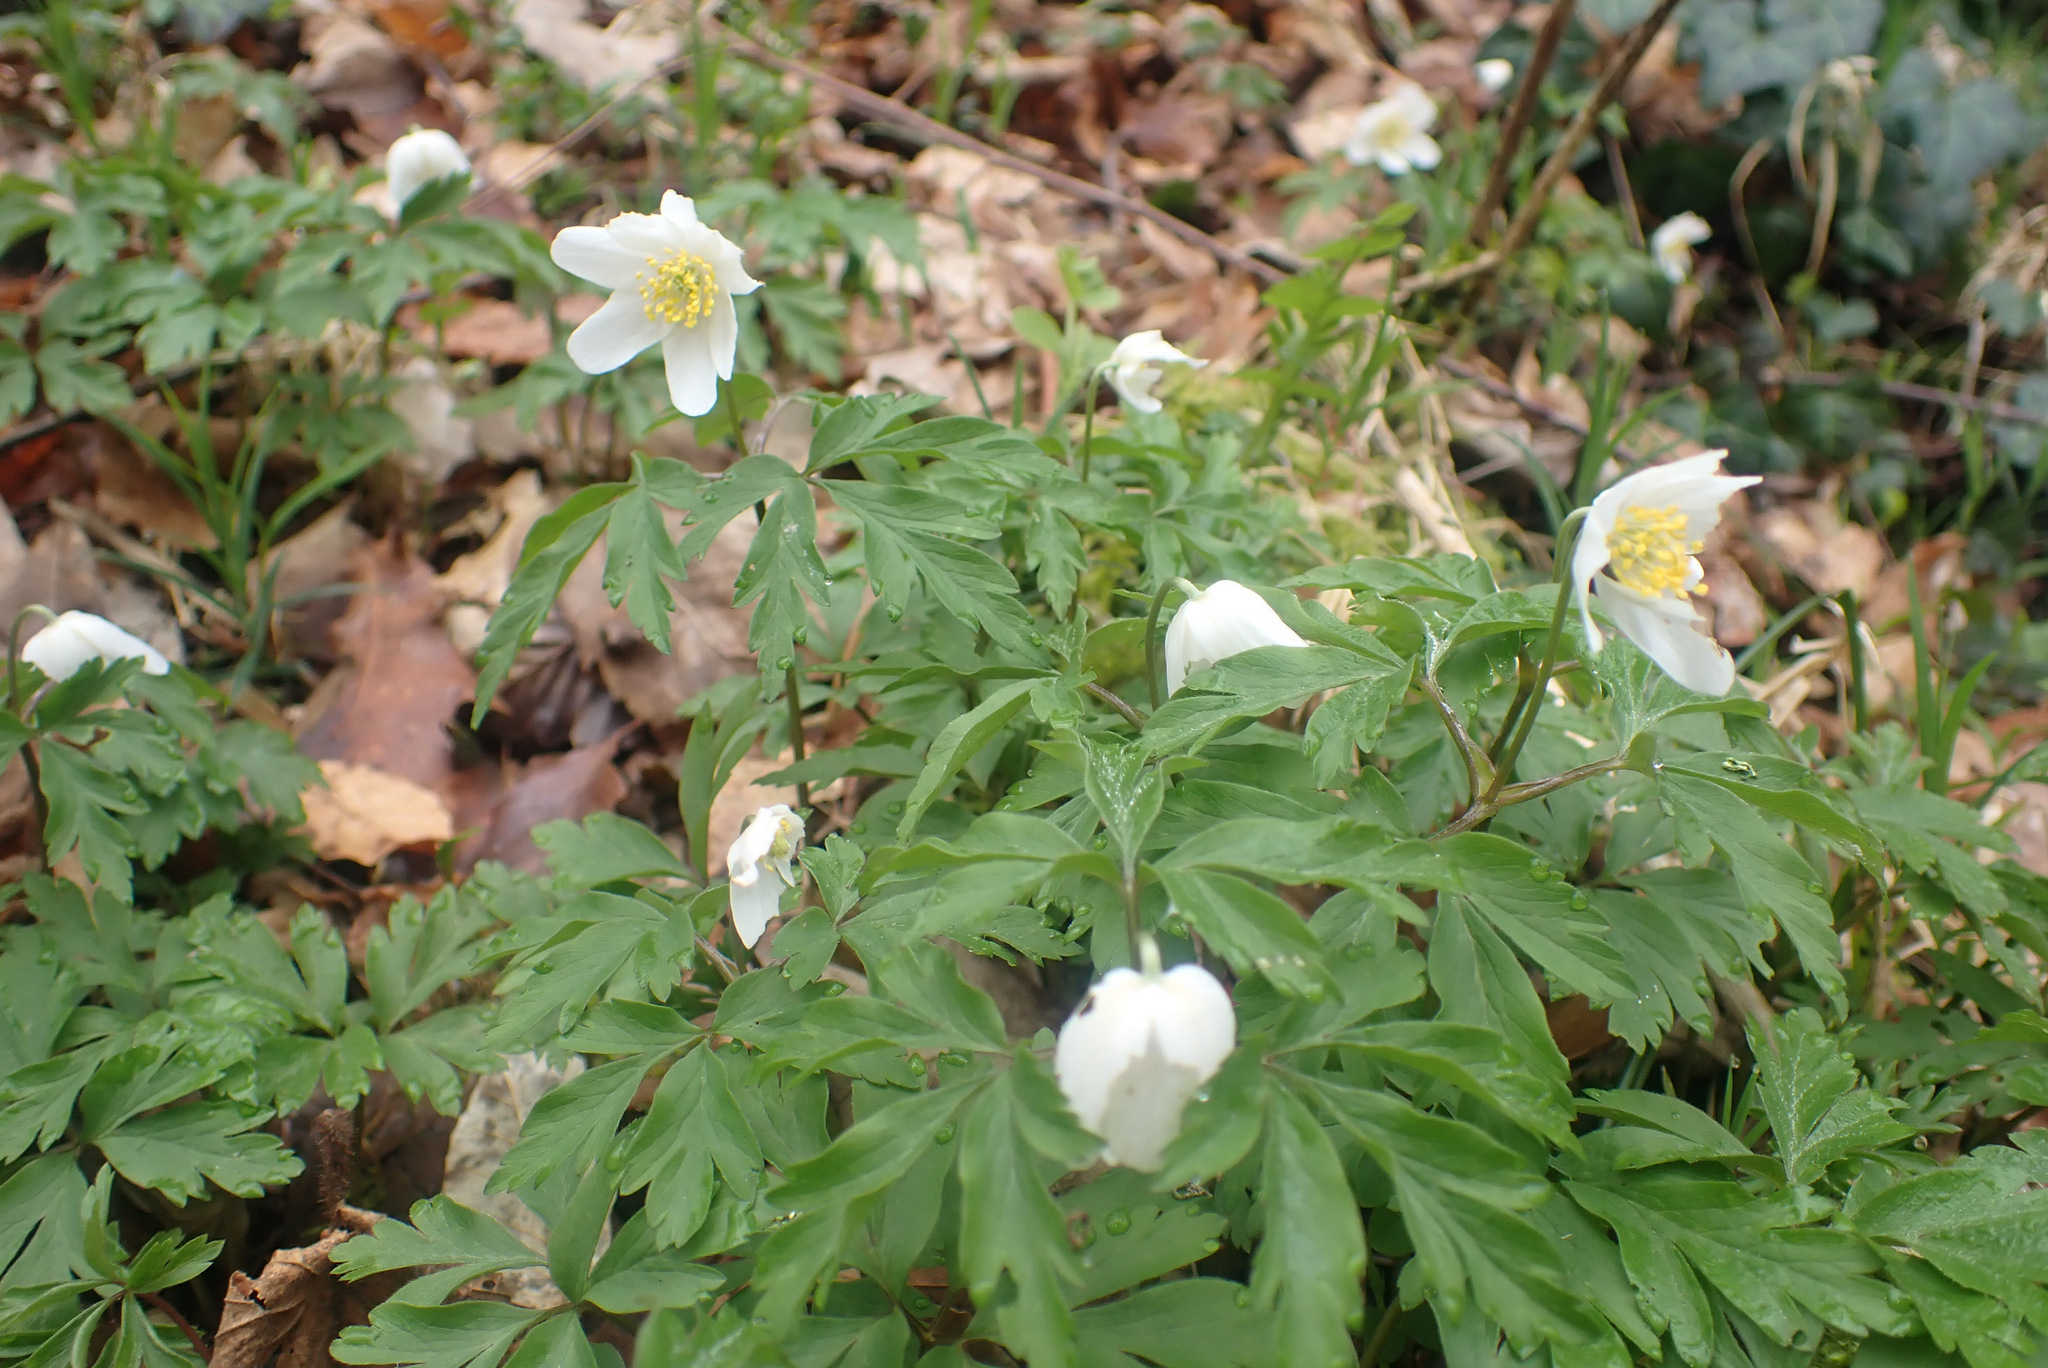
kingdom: Plantae
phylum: Tracheophyta
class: Magnoliopsida
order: Ranunculales
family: Ranunculaceae
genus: Anemone
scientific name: Anemone nemorosa
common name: Wood anemone
